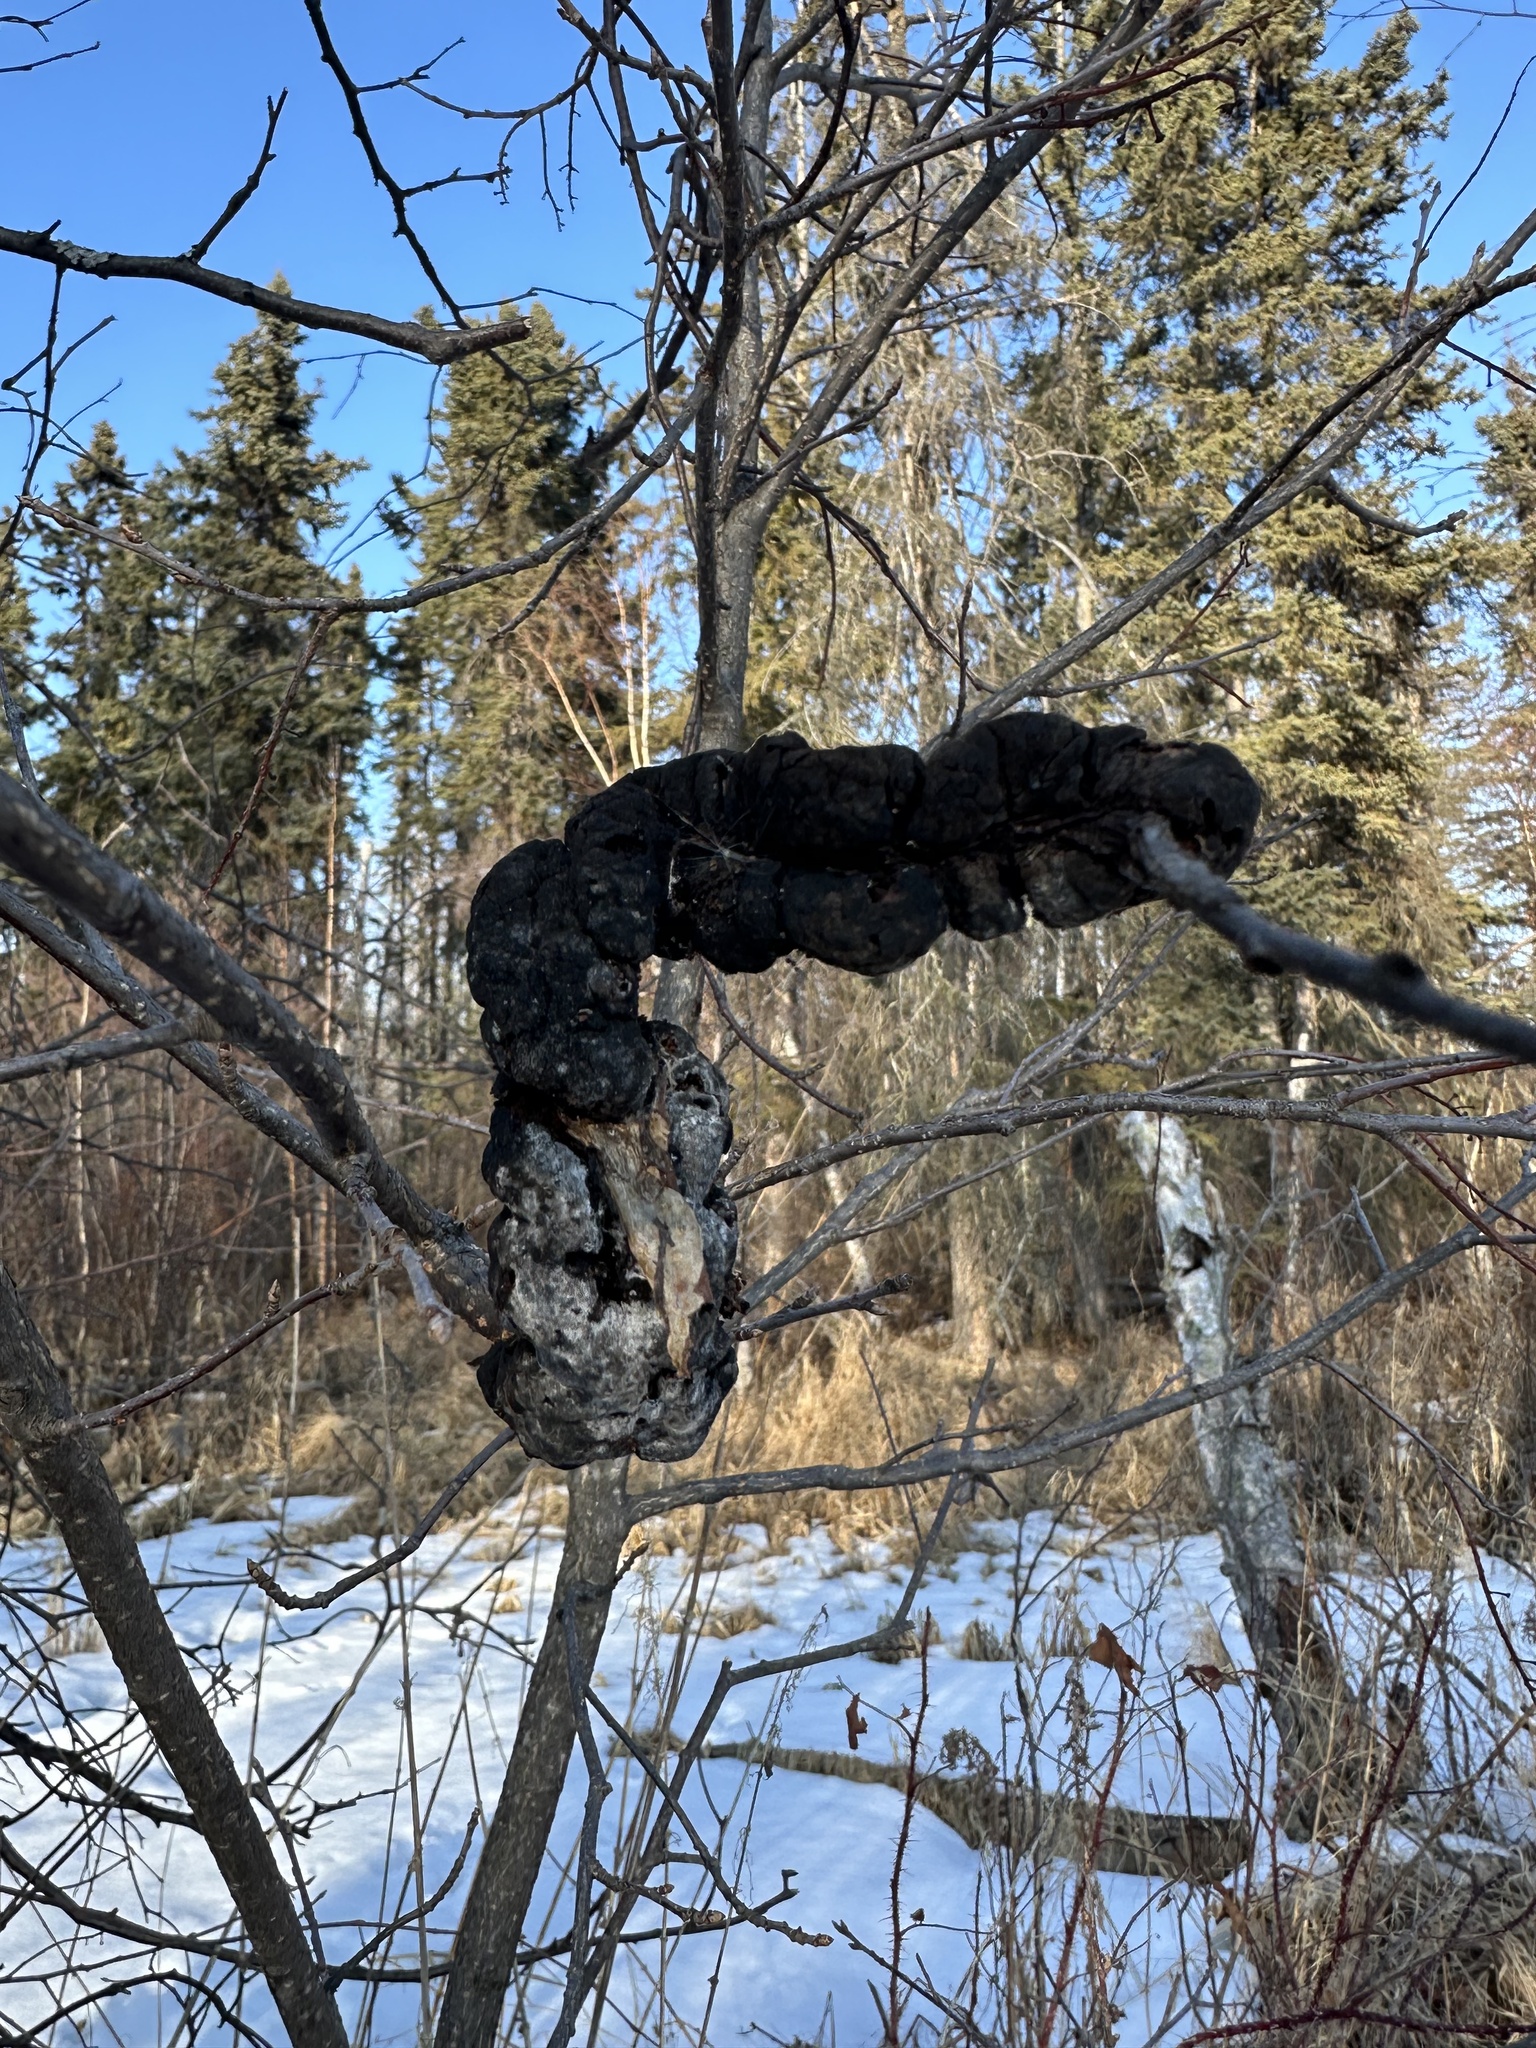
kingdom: Fungi
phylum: Ascomycota
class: Dothideomycetes
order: Venturiales
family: Venturiaceae
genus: Apiosporina
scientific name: Apiosporina morbosa
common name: Black knot
